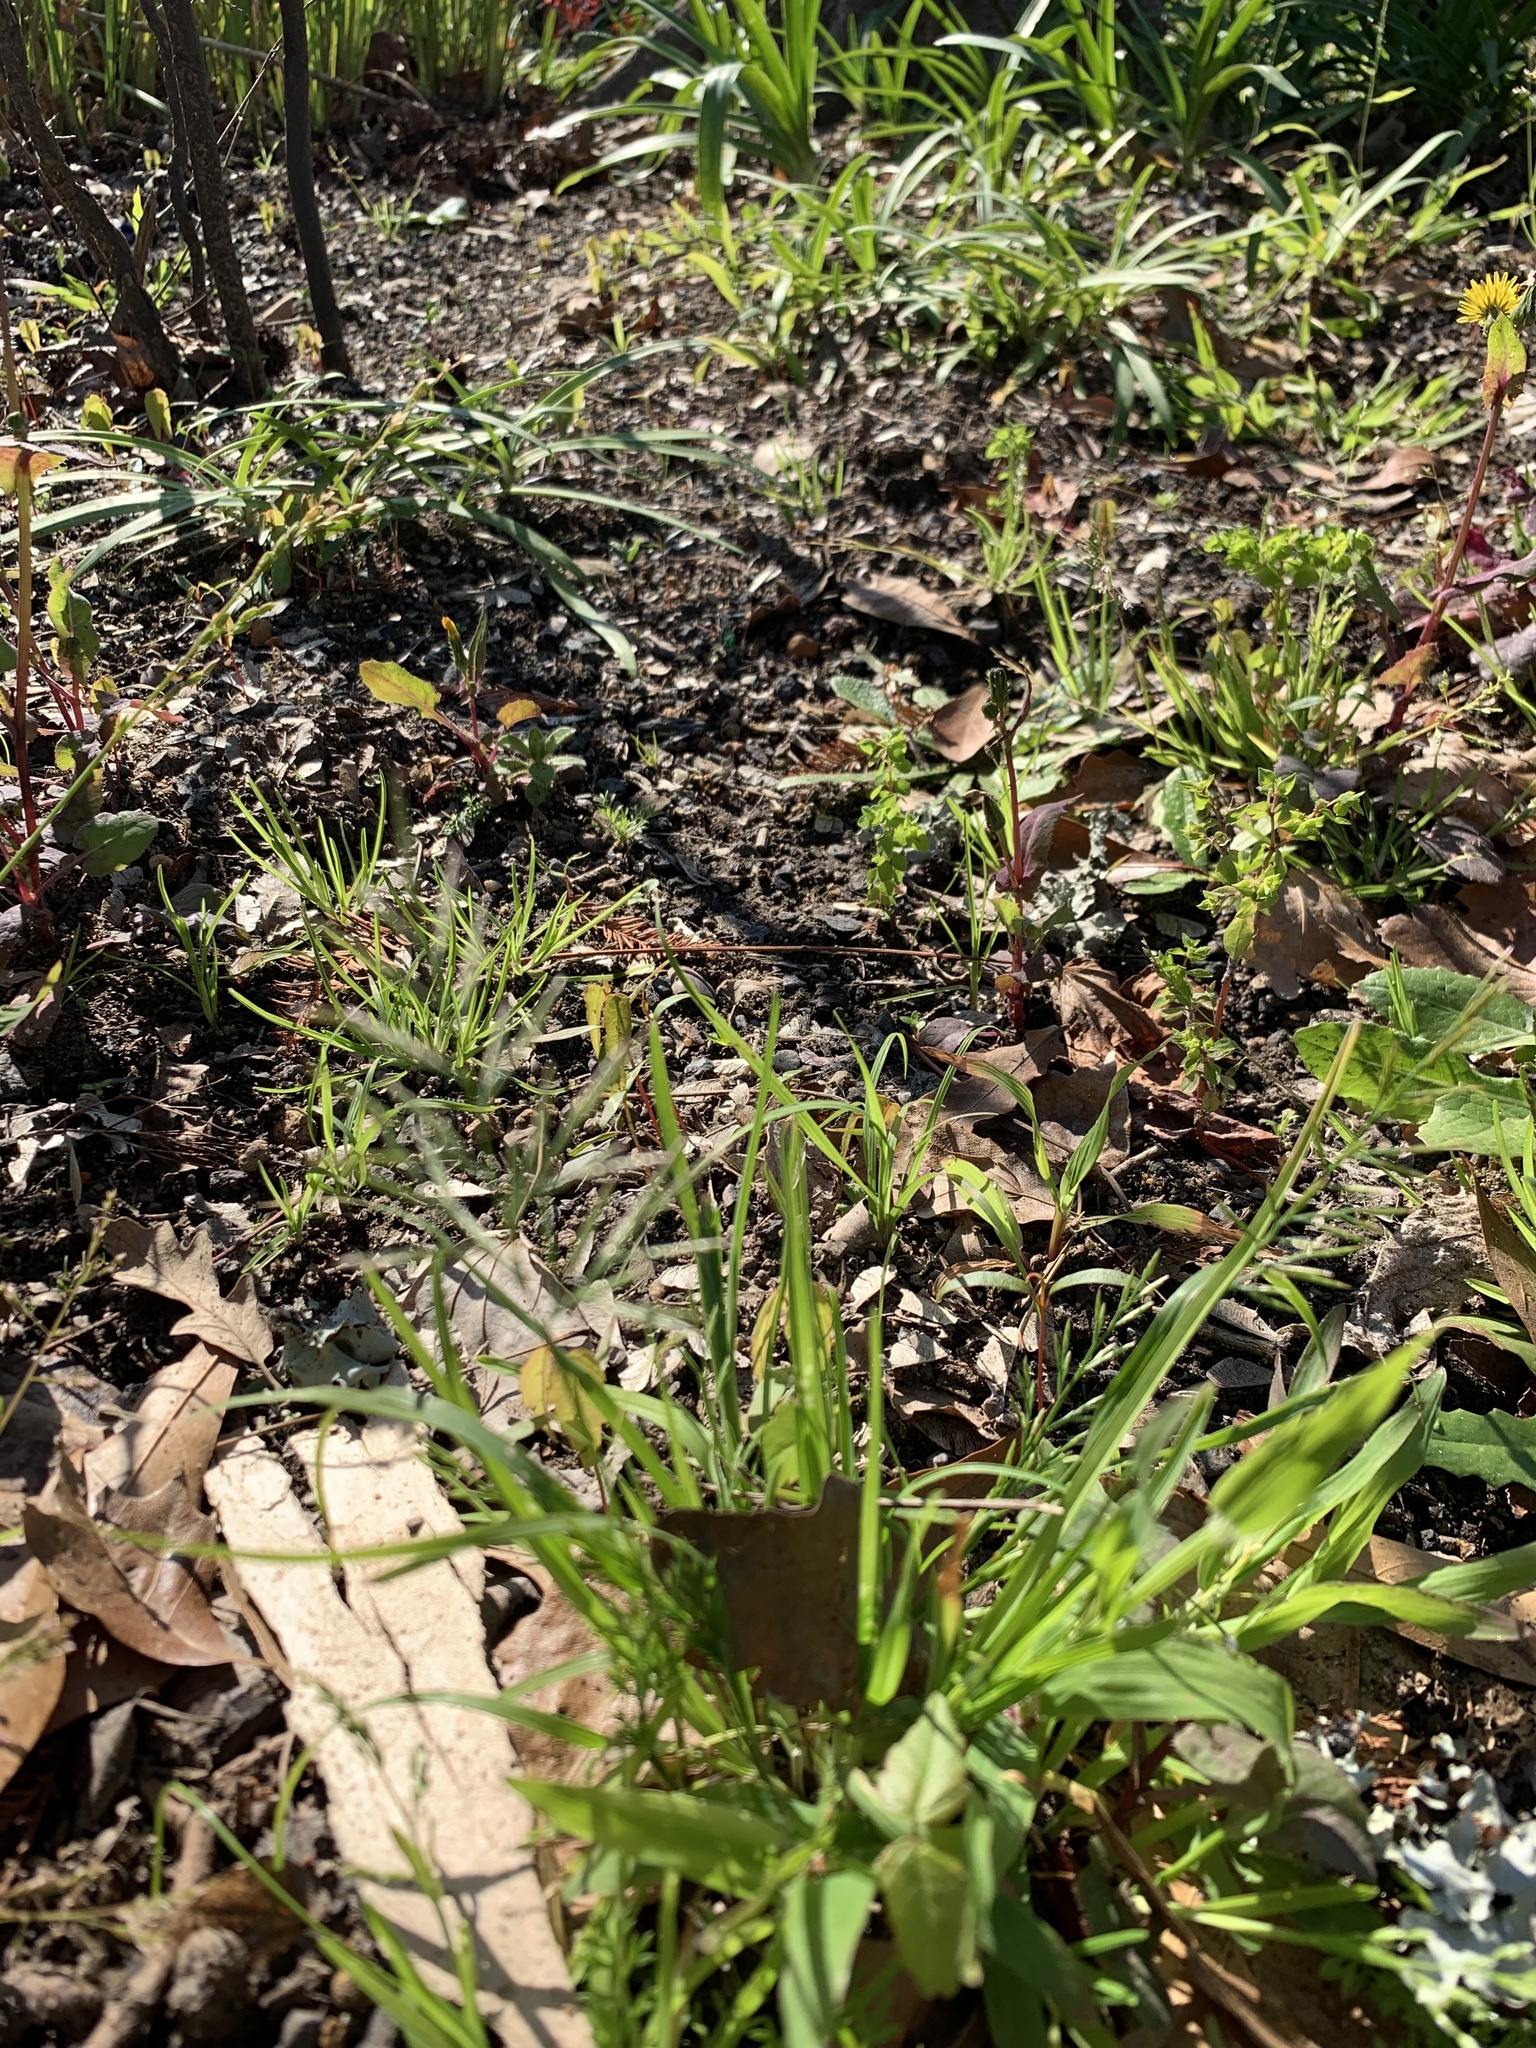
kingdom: Plantae
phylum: Tracheophyta
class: Liliopsida
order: Poales
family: Poaceae
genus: Catapodium
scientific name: Catapodium rigidum
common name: Fern-grass
